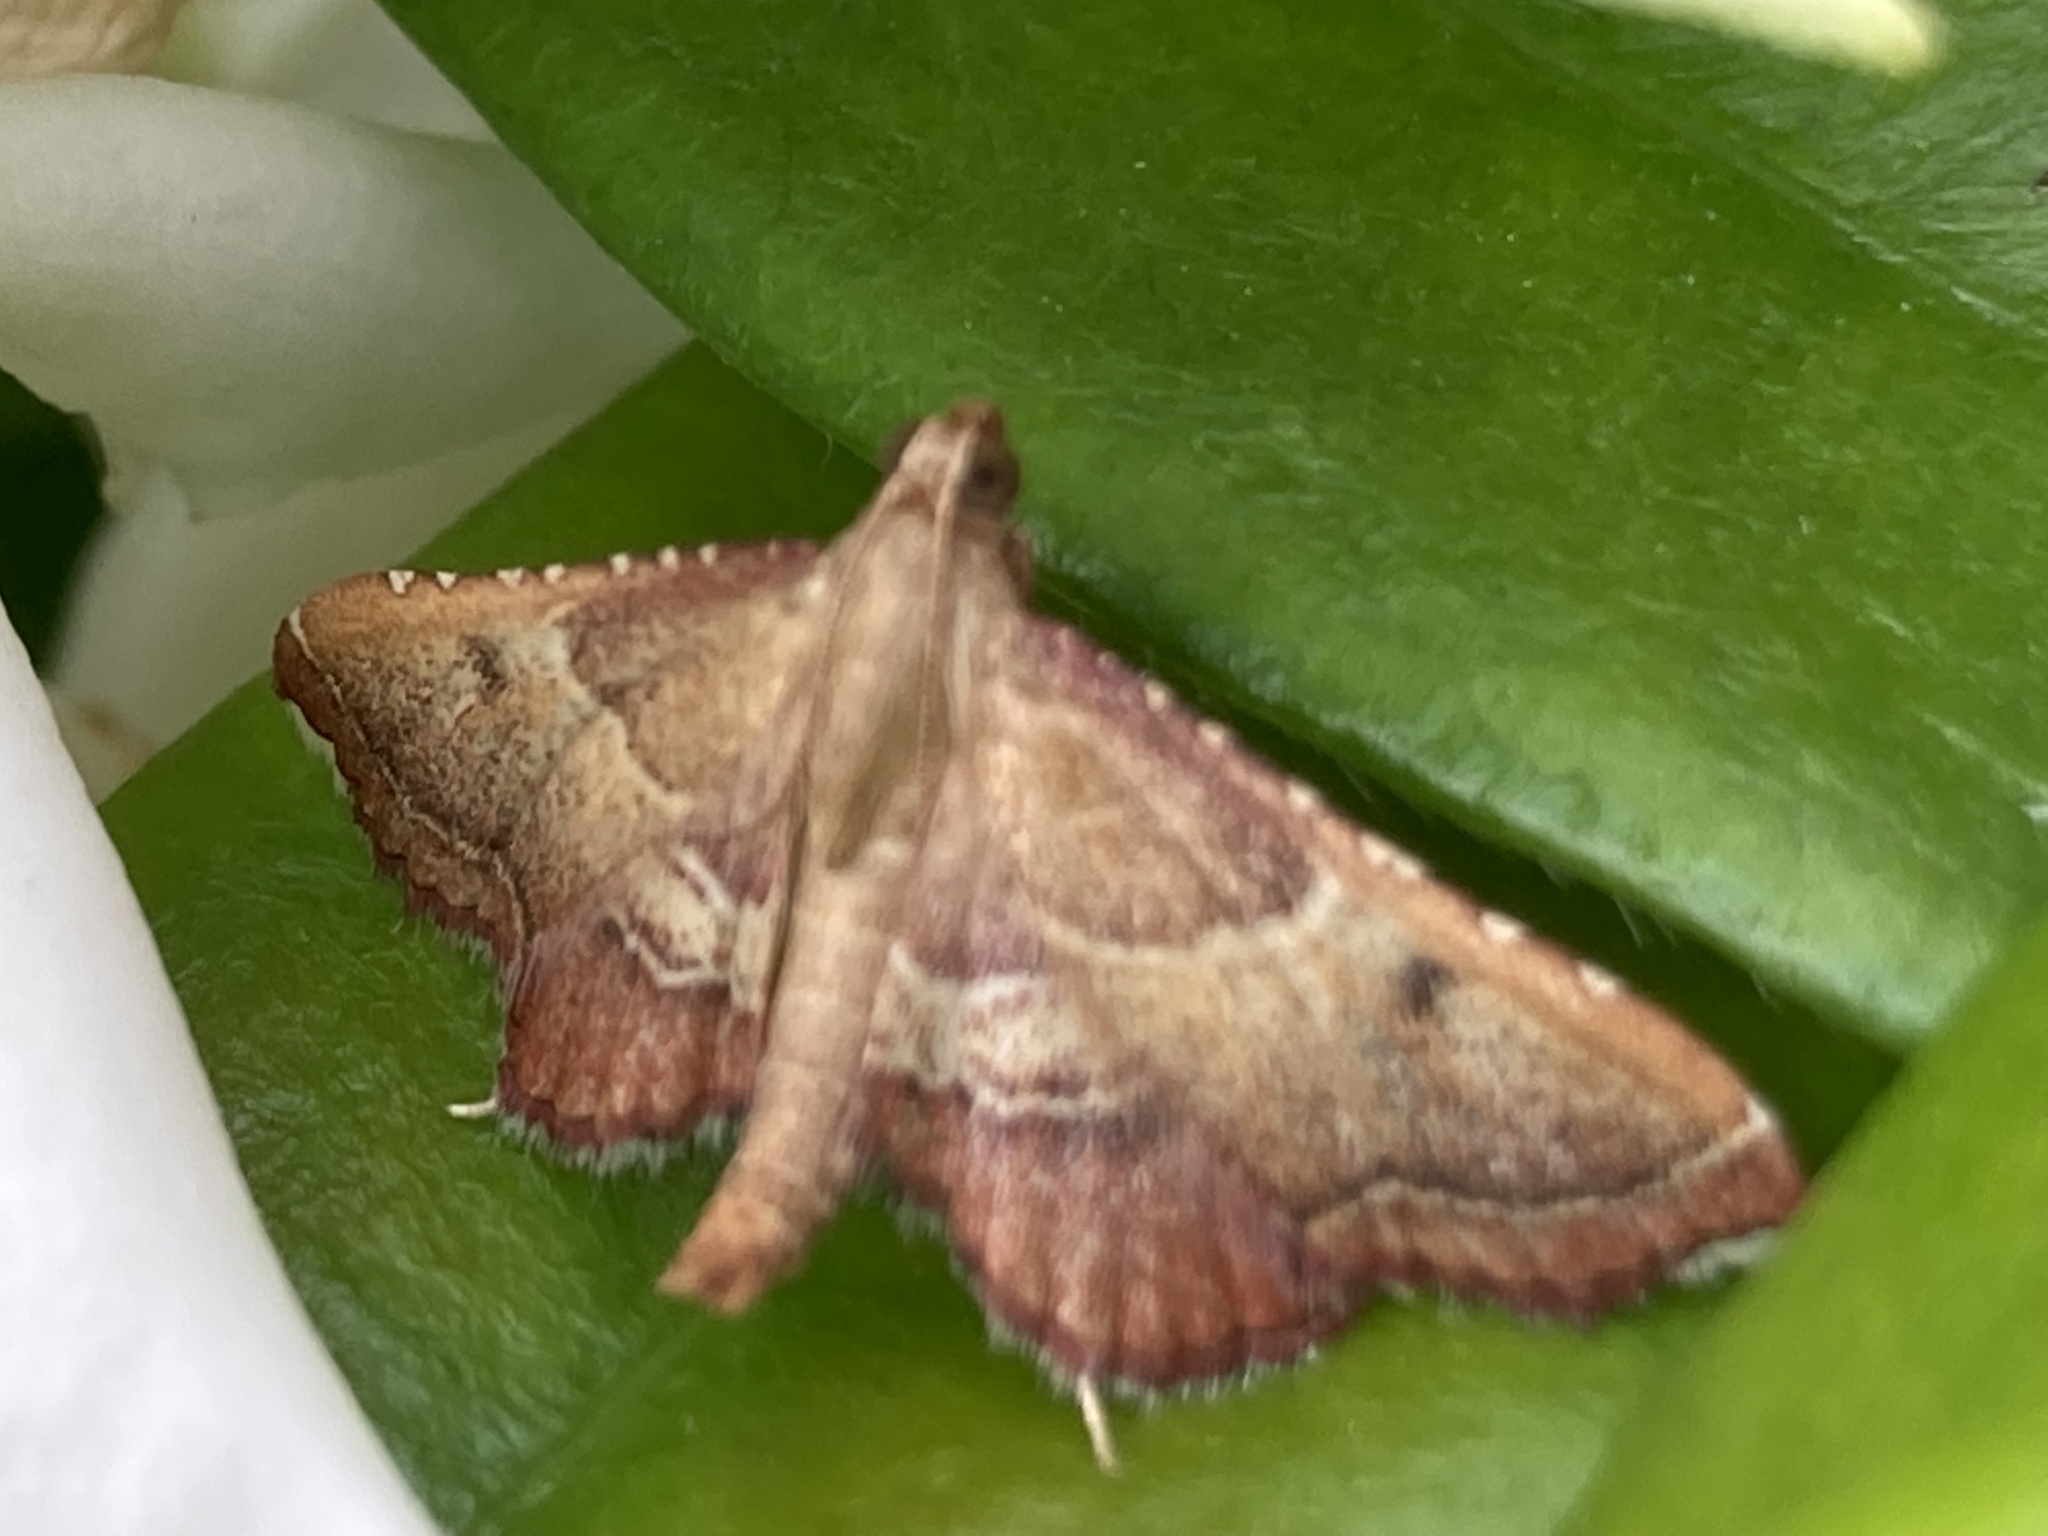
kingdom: Animalia
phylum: Arthropoda
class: Insecta
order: Lepidoptera
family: Pyralidae
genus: Endotricha
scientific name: Endotricha flammealis
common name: Rosy tabby
